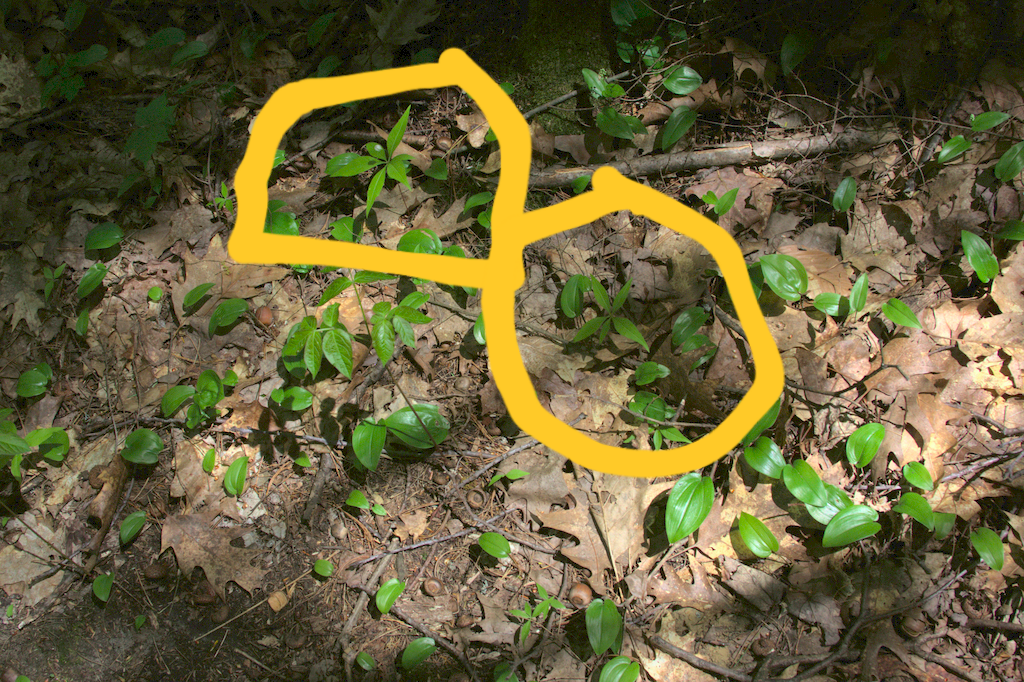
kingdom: Plantae
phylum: Tracheophyta
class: Magnoliopsida
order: Ericales
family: Primulaceae
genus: Lysimachia
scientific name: Lysimachia borealis
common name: American starflower
